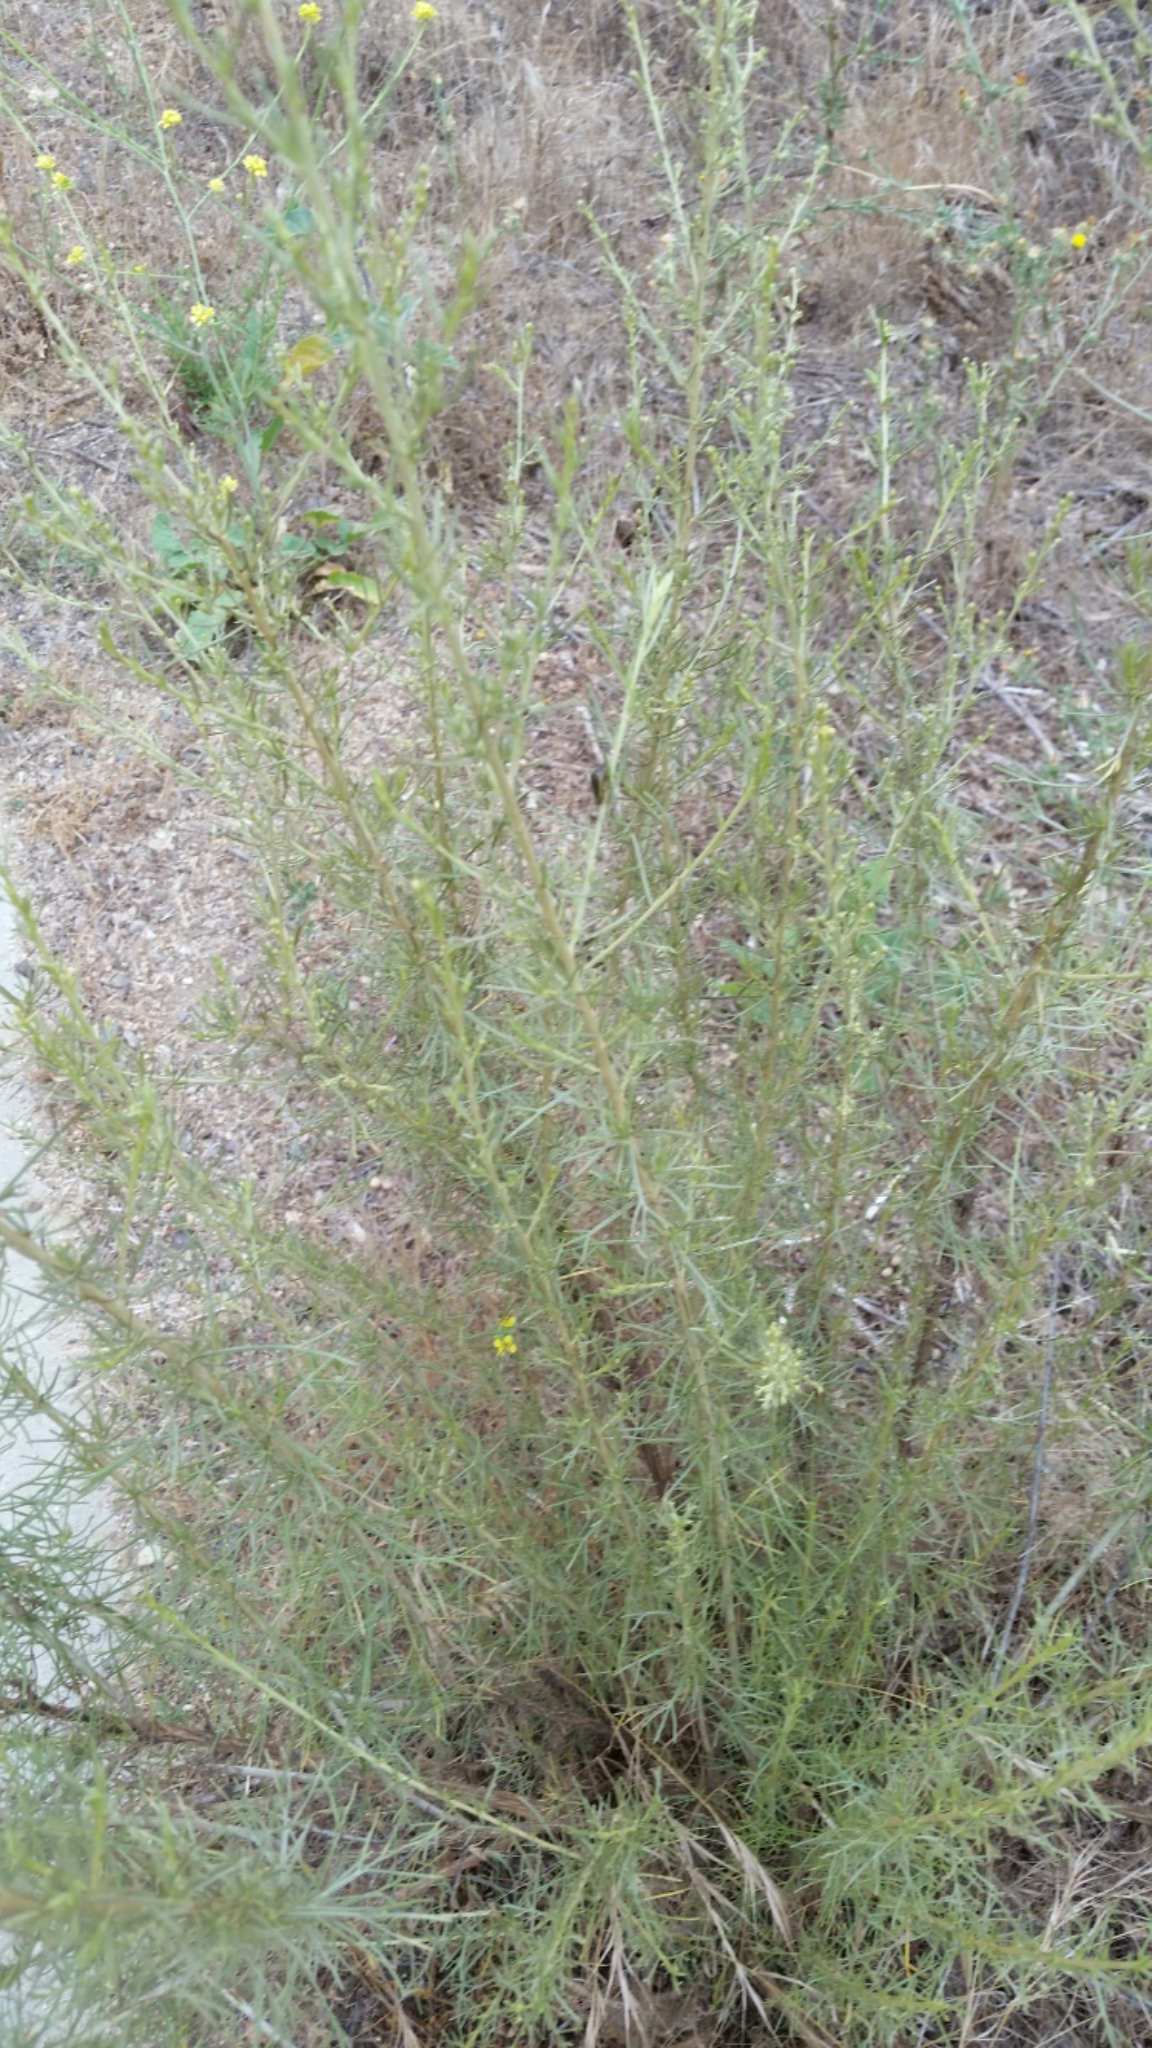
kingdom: Plantae
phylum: Tracheophyta
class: Magnoliopsida
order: Asterales
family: Asteraceae
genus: Artemisia
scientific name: Artemisia californica
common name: California sagebrush
